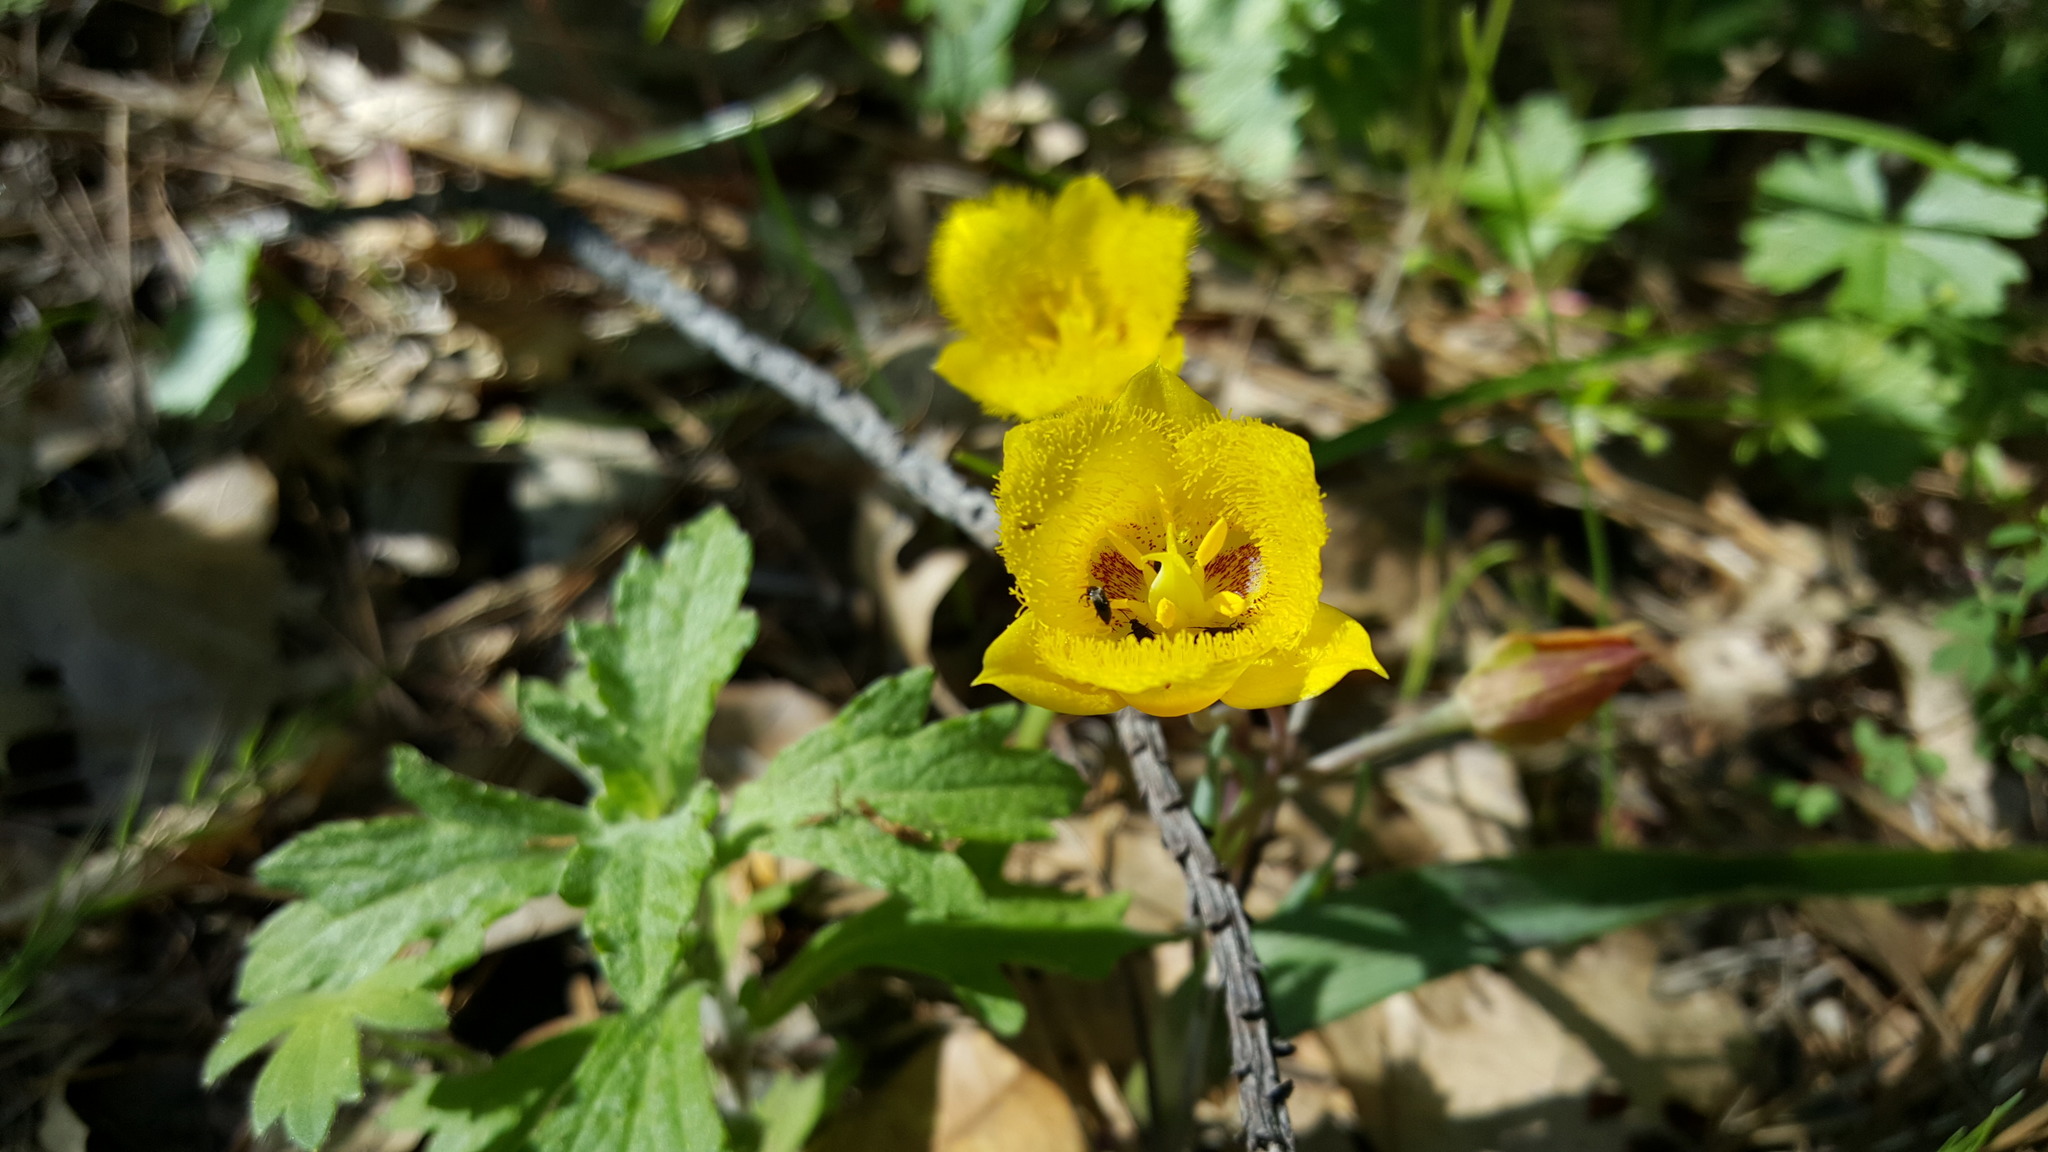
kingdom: Plantae
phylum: Tracheophyta
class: Liliopsida
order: Liliales
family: Liliaceae
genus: Calochortus
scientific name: Calochortus monophyllus
